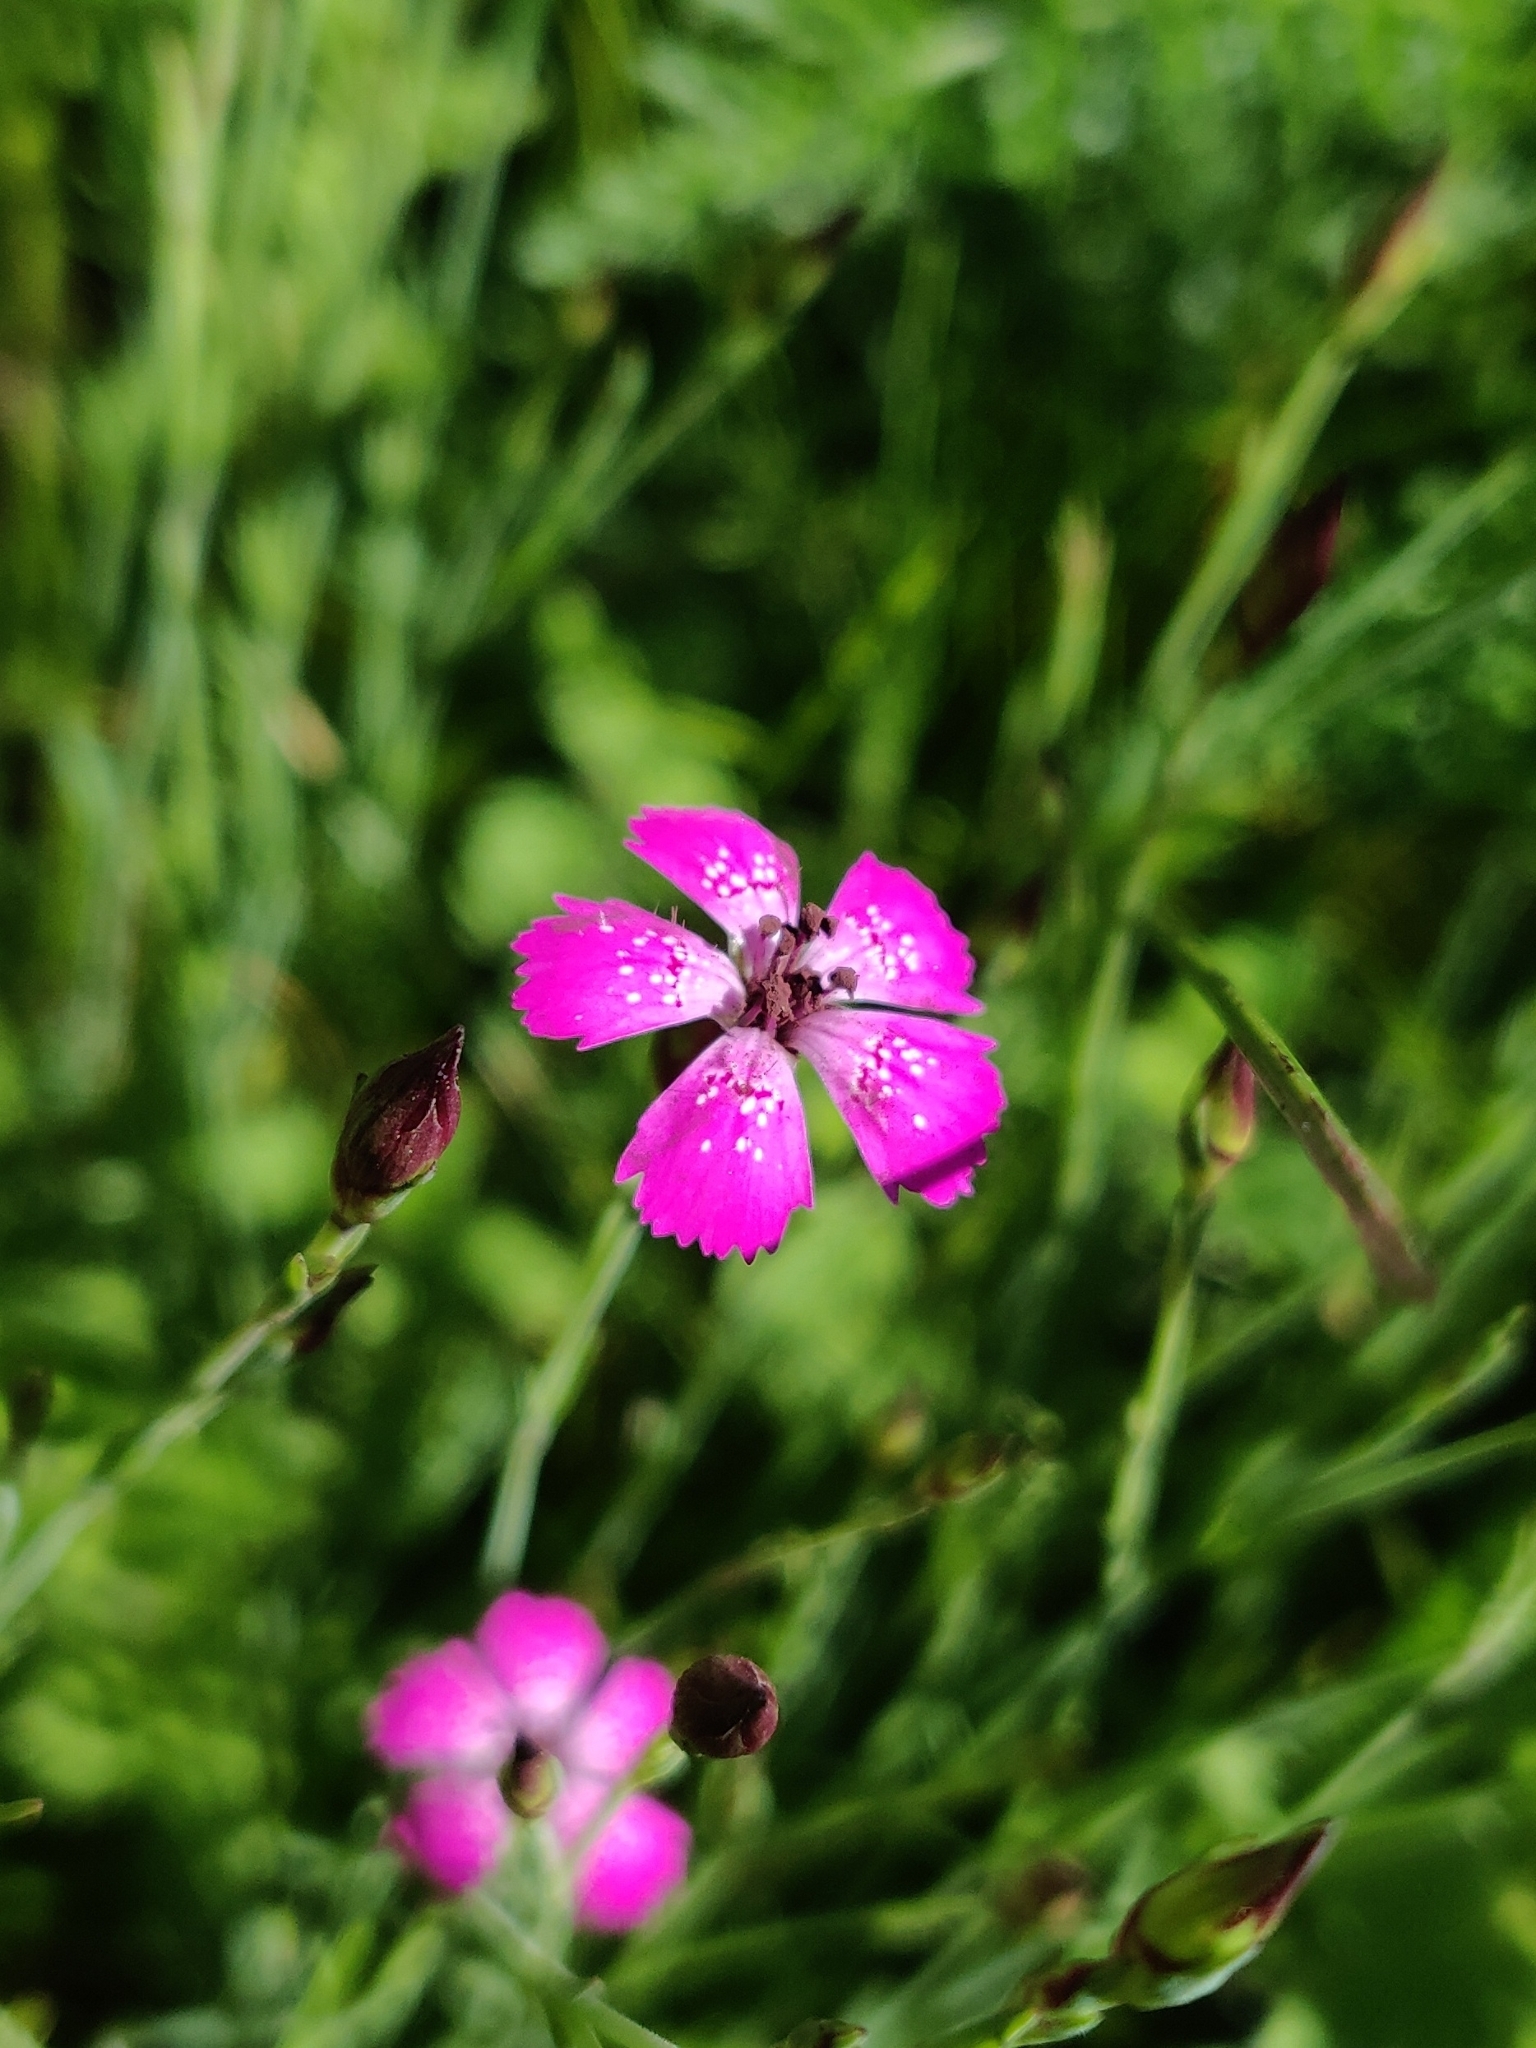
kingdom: Plantae
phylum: Tracheophyta
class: Magnoliopsida
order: Caryophyllales
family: Caryophyllaceae
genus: Dianthus
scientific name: Dianthus deltoides
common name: Maiden pink
